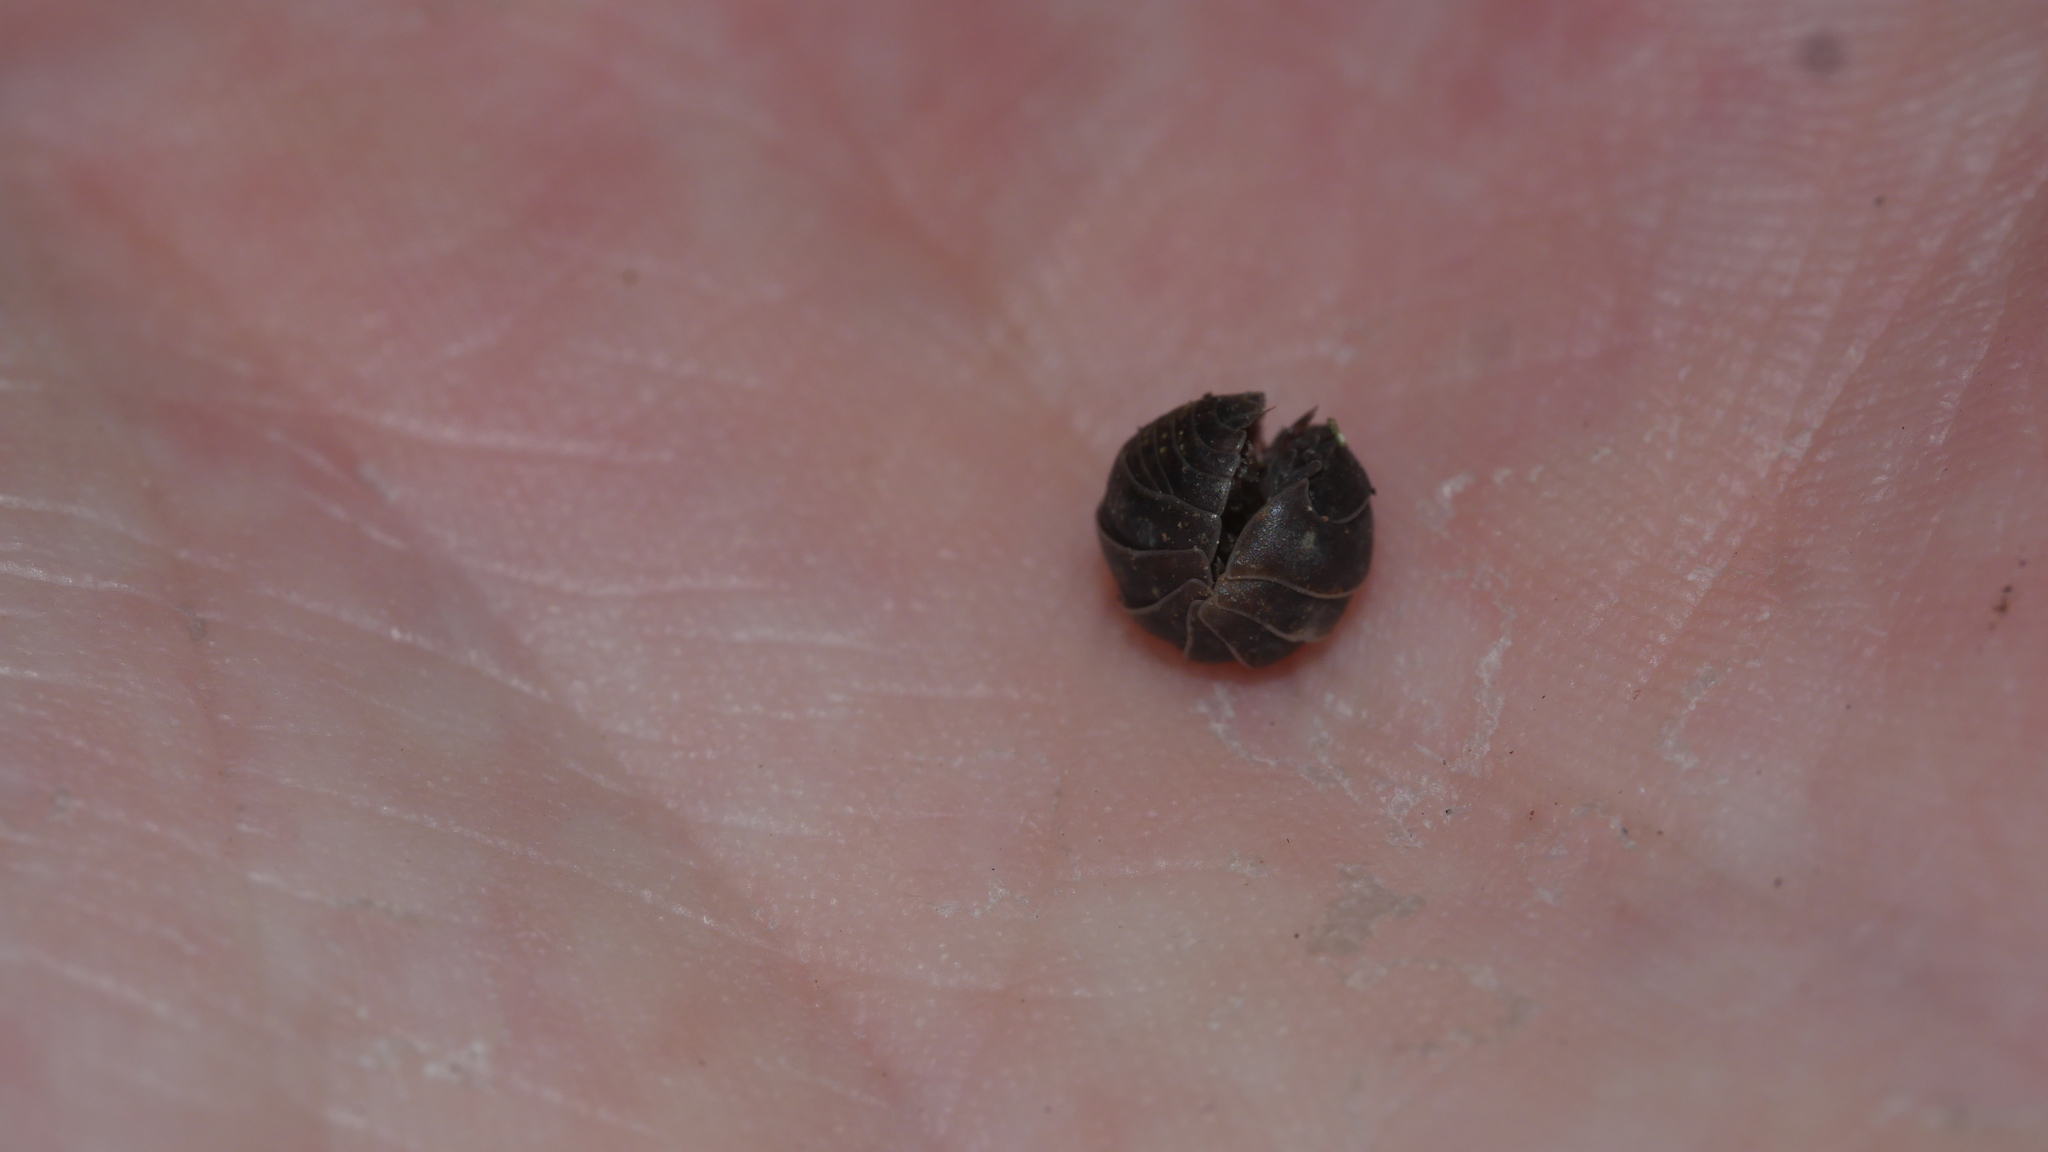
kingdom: Animalia
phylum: Arthropoda
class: Malacostraca
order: Isopoda
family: Armadillidiidae
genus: Armadillidium
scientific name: Armadillidium vulgare
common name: Common pill woodlouse
